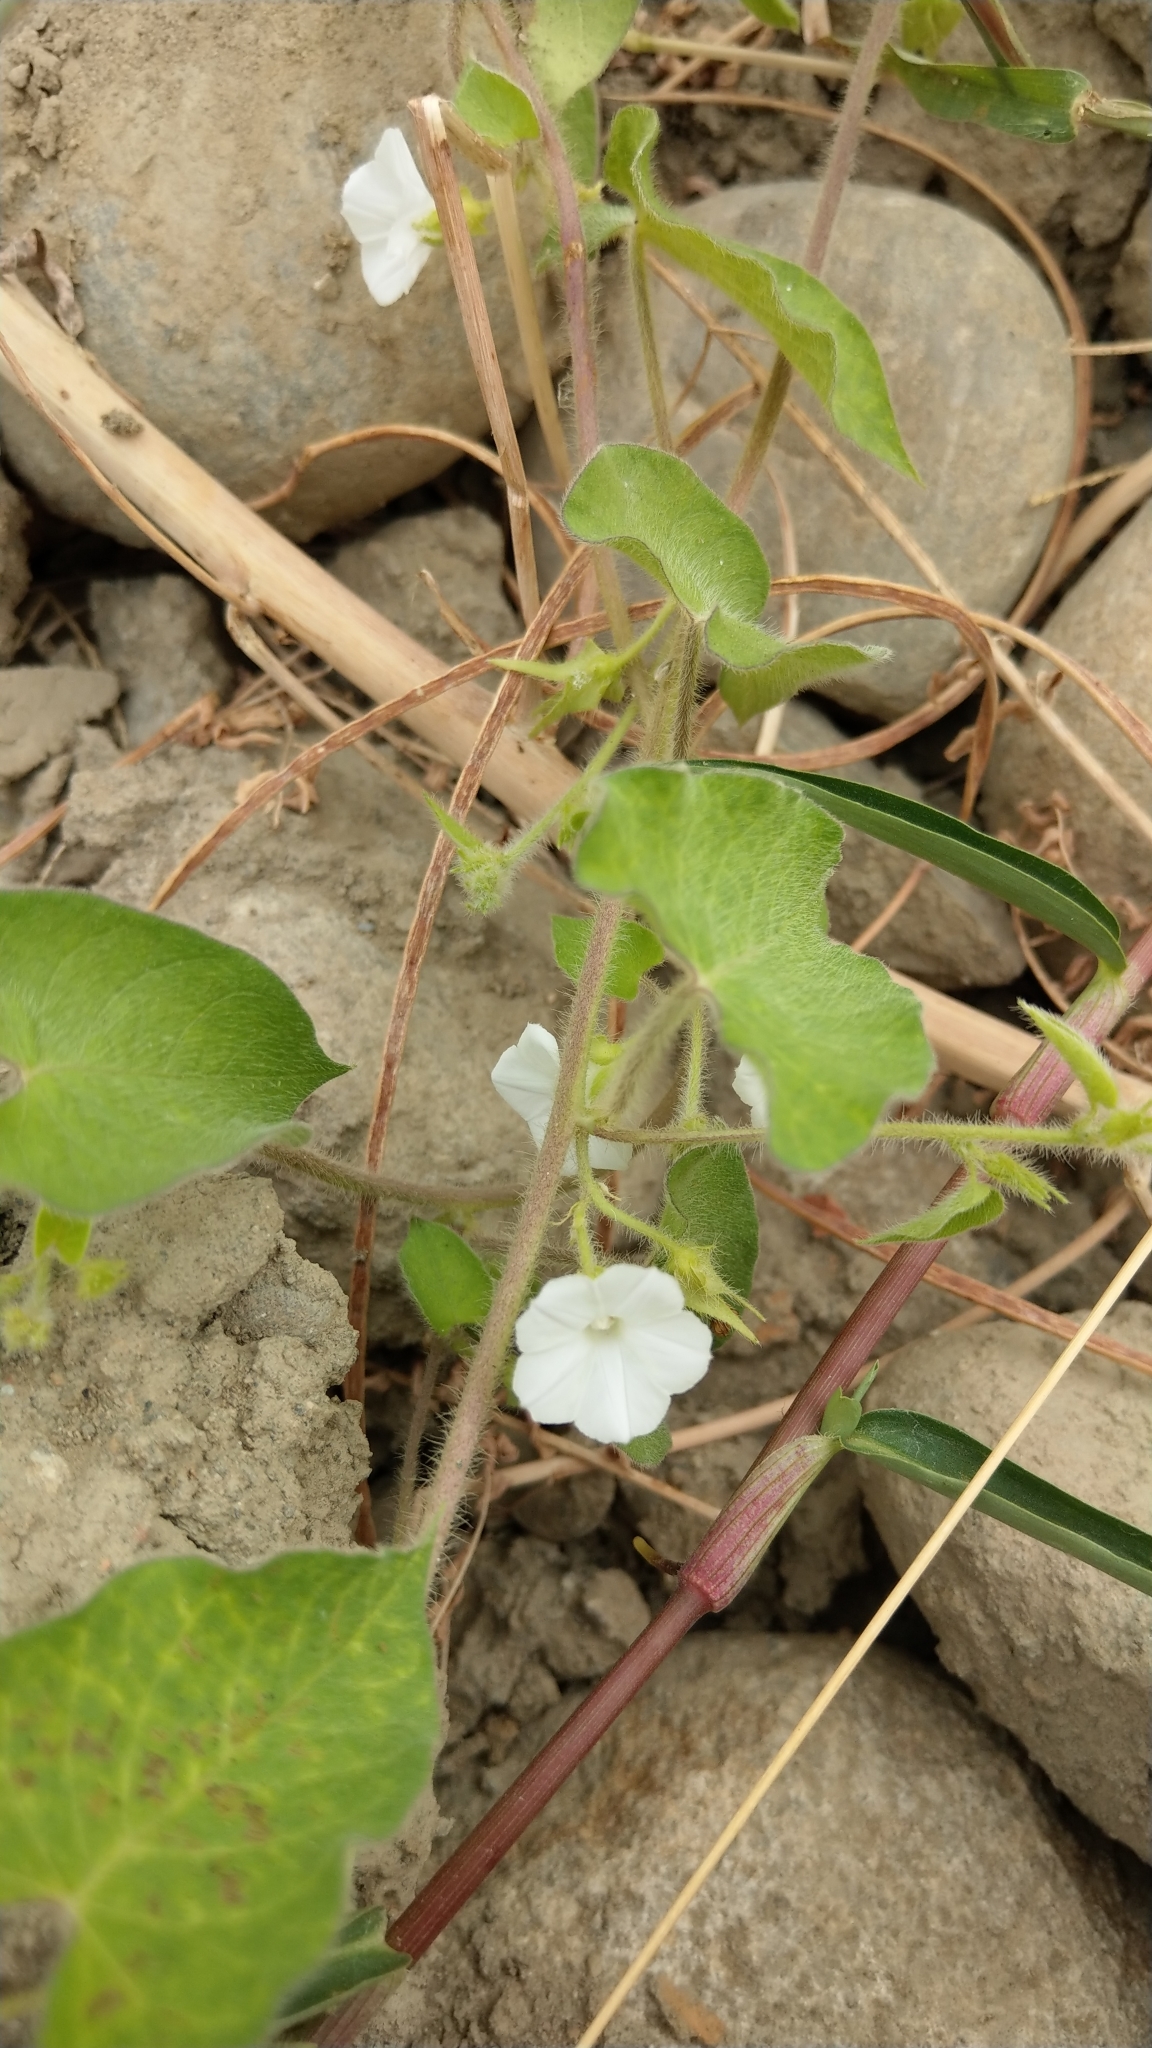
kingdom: Plantae
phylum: Tracheophyta
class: Magnoliopsida
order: Solanales
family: Convolvulaceae
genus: Ipomoea
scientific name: Ipomoea biflora
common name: Bellvine
